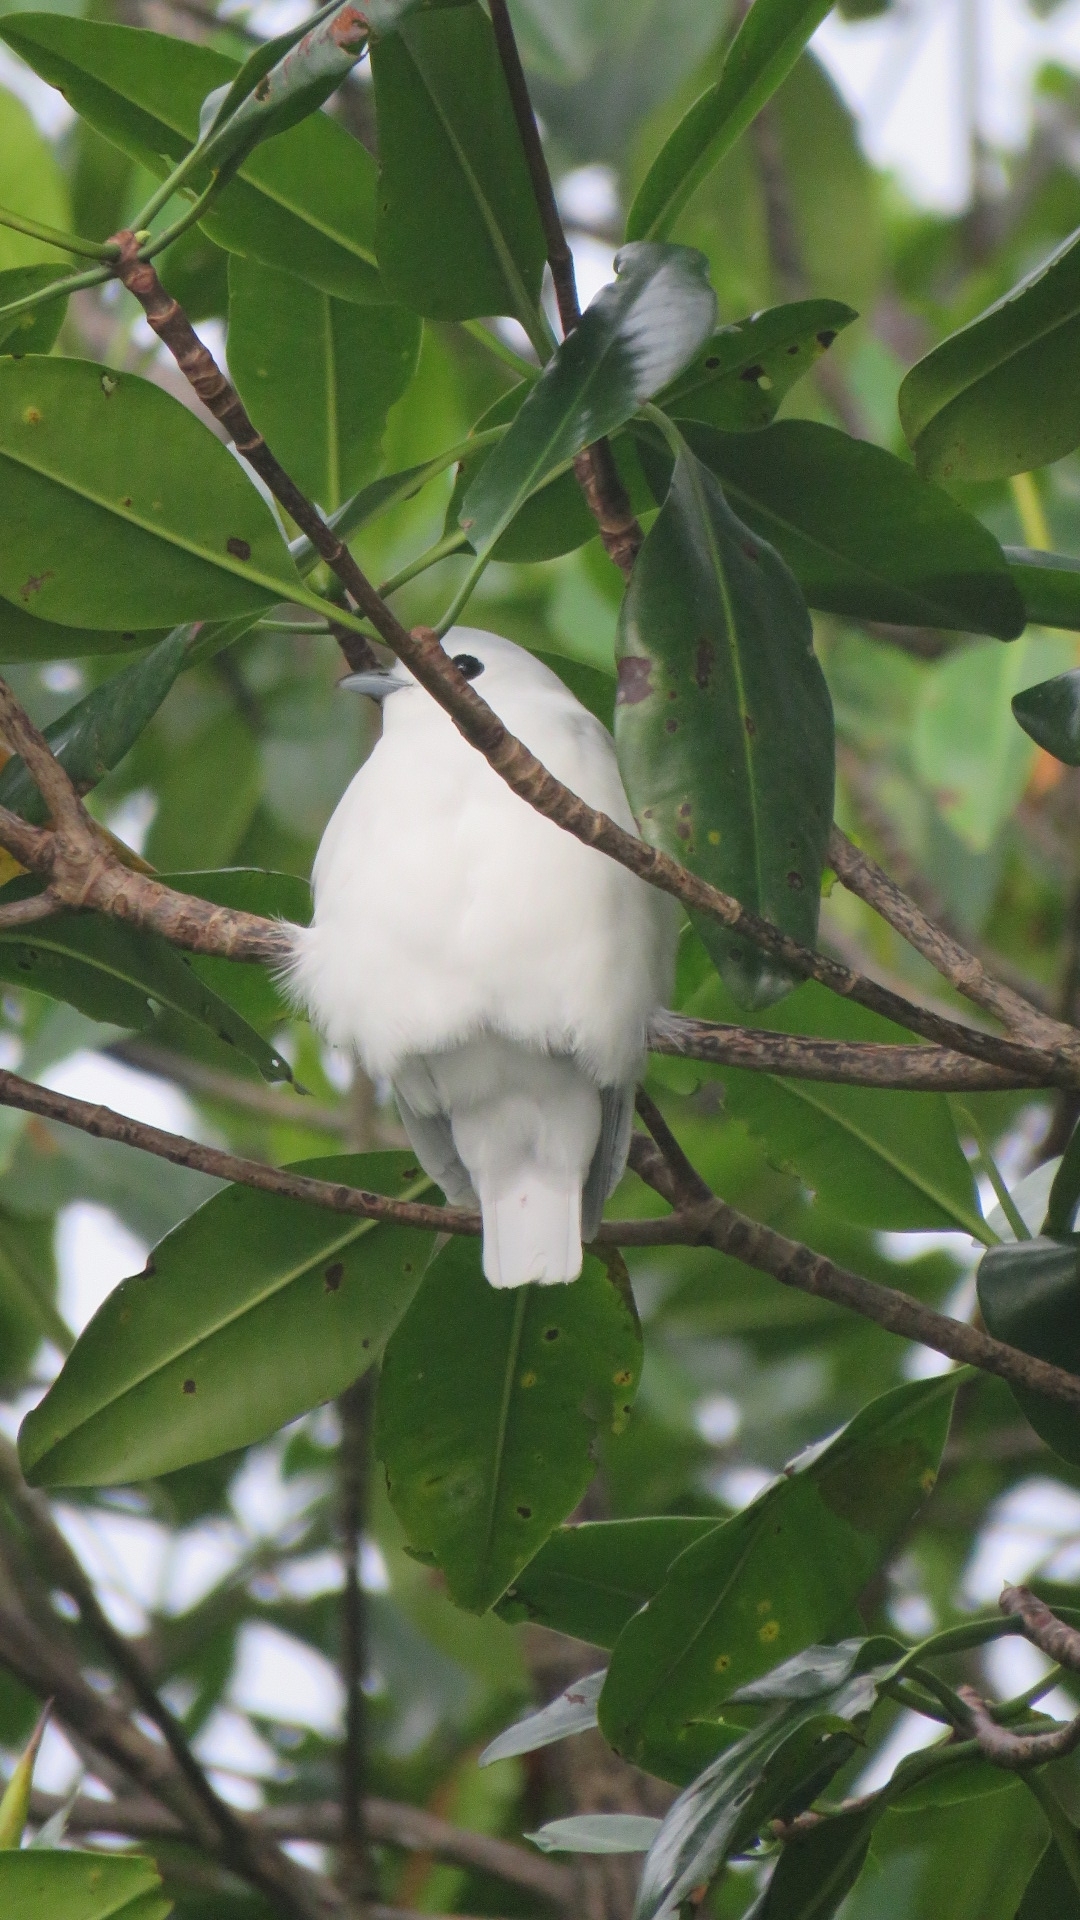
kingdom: Animalia
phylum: Chordata
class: Aves
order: Passeriformes
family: Cotingidae
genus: Carpodectes
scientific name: Carpodectes nitidus
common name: Snowy cotinga
